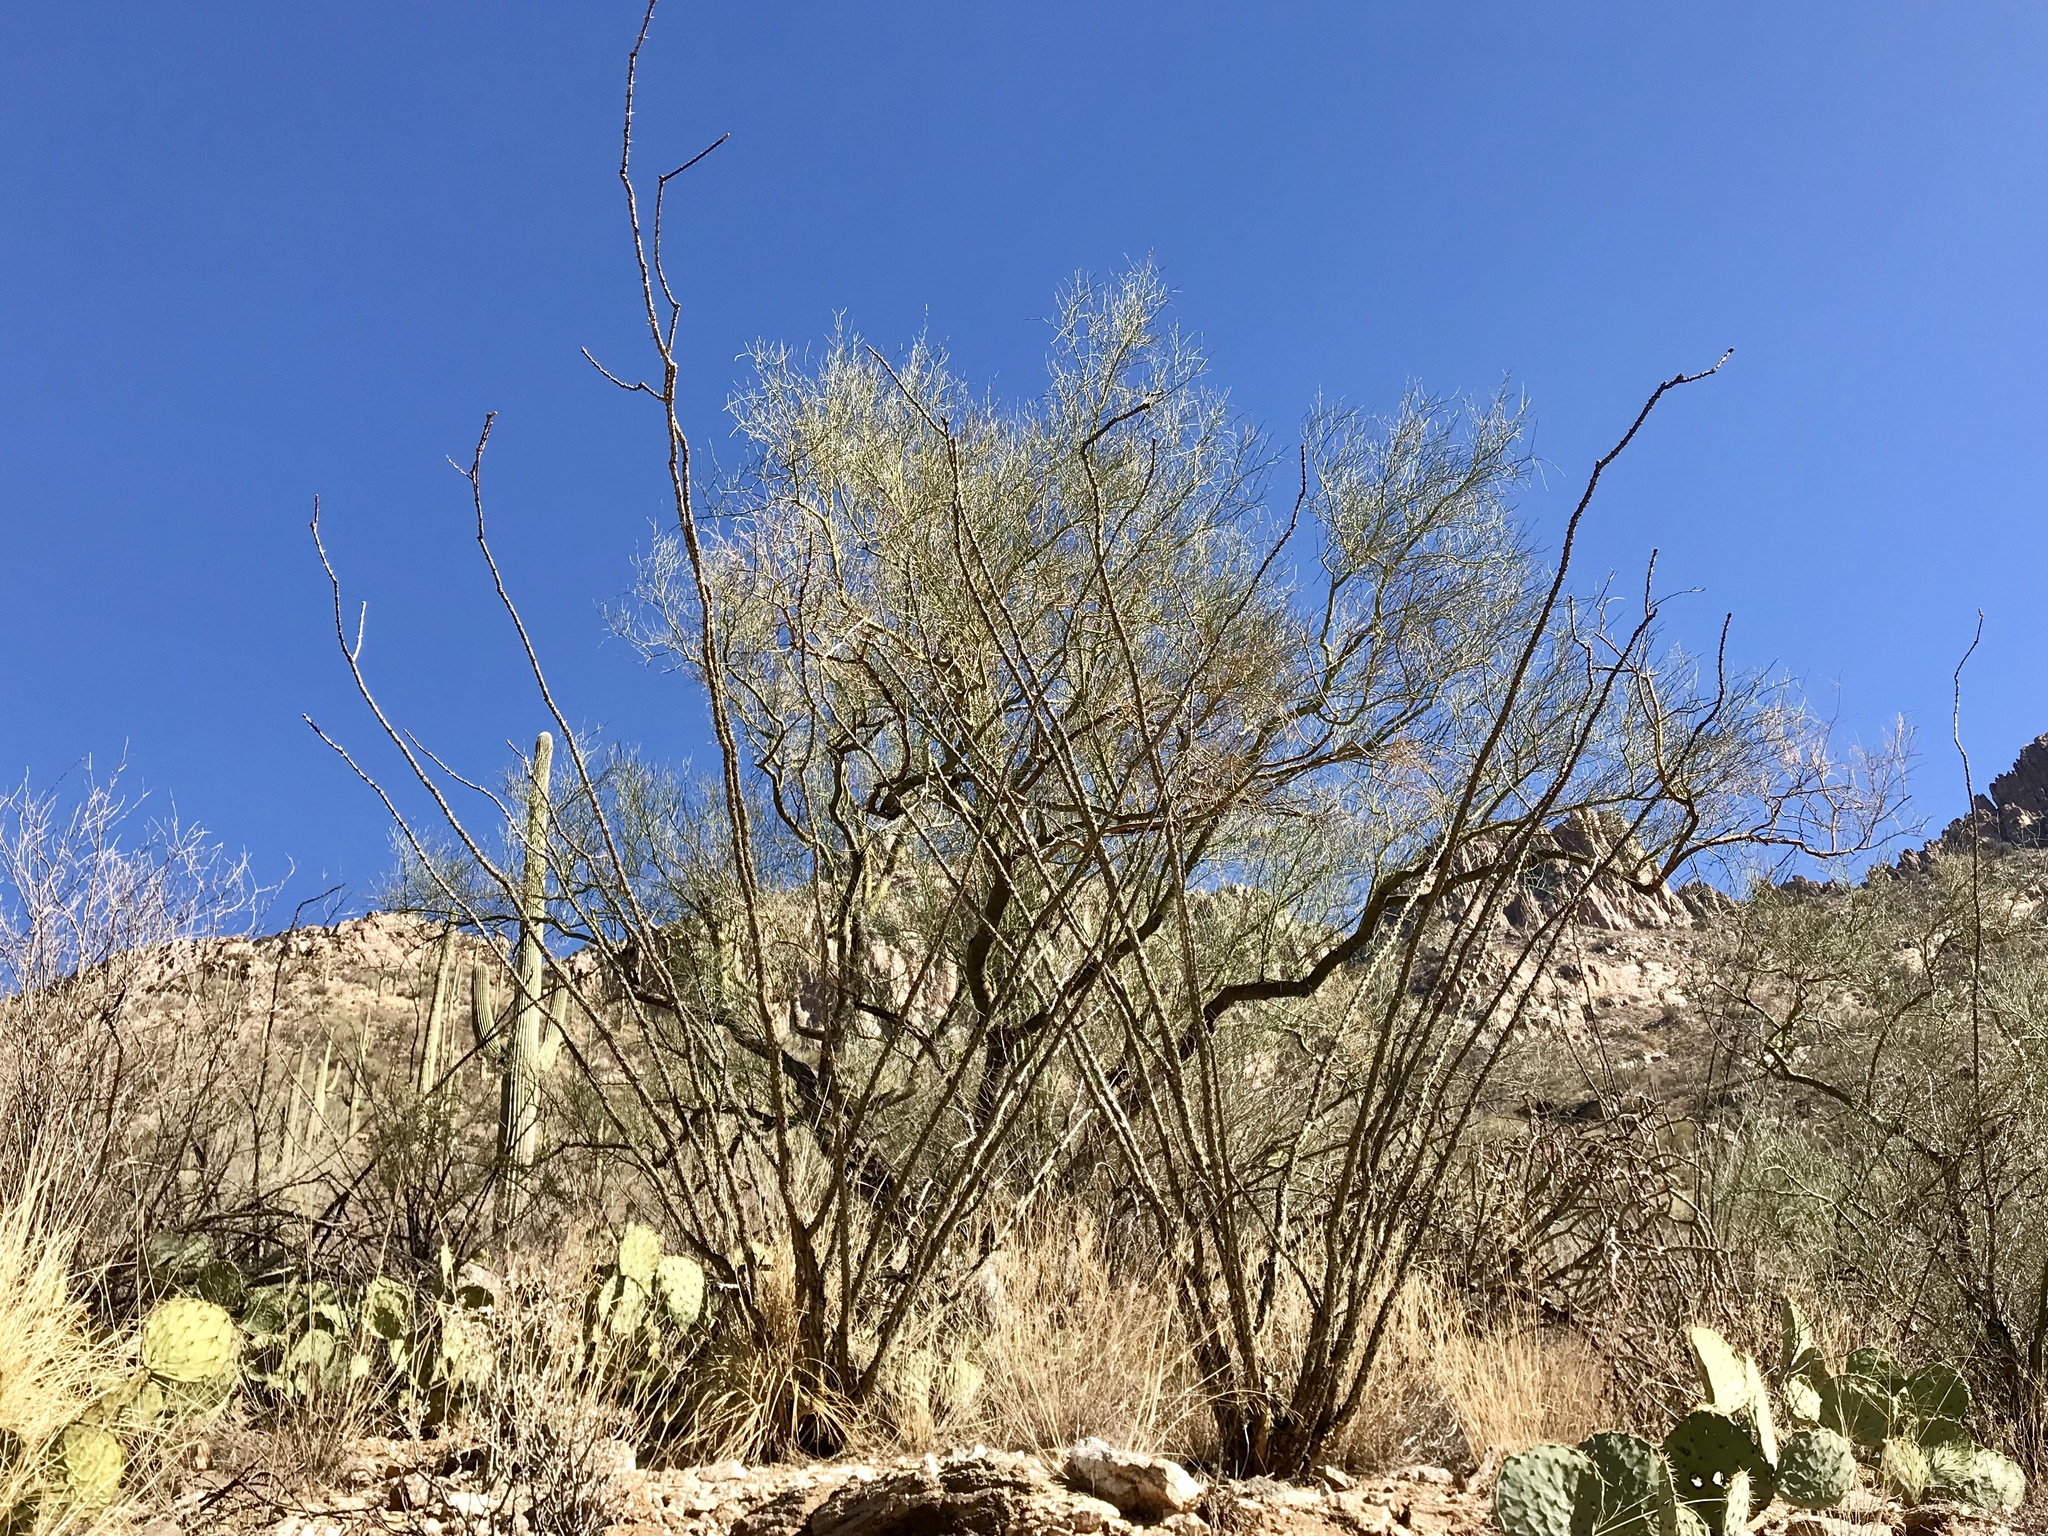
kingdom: Plantae
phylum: Tracheophyta
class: Magnoliopsida
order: Ericales
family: Fouquieriaceae
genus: Fouquieria
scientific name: Fouquieria splendens
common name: Vine-cactus
